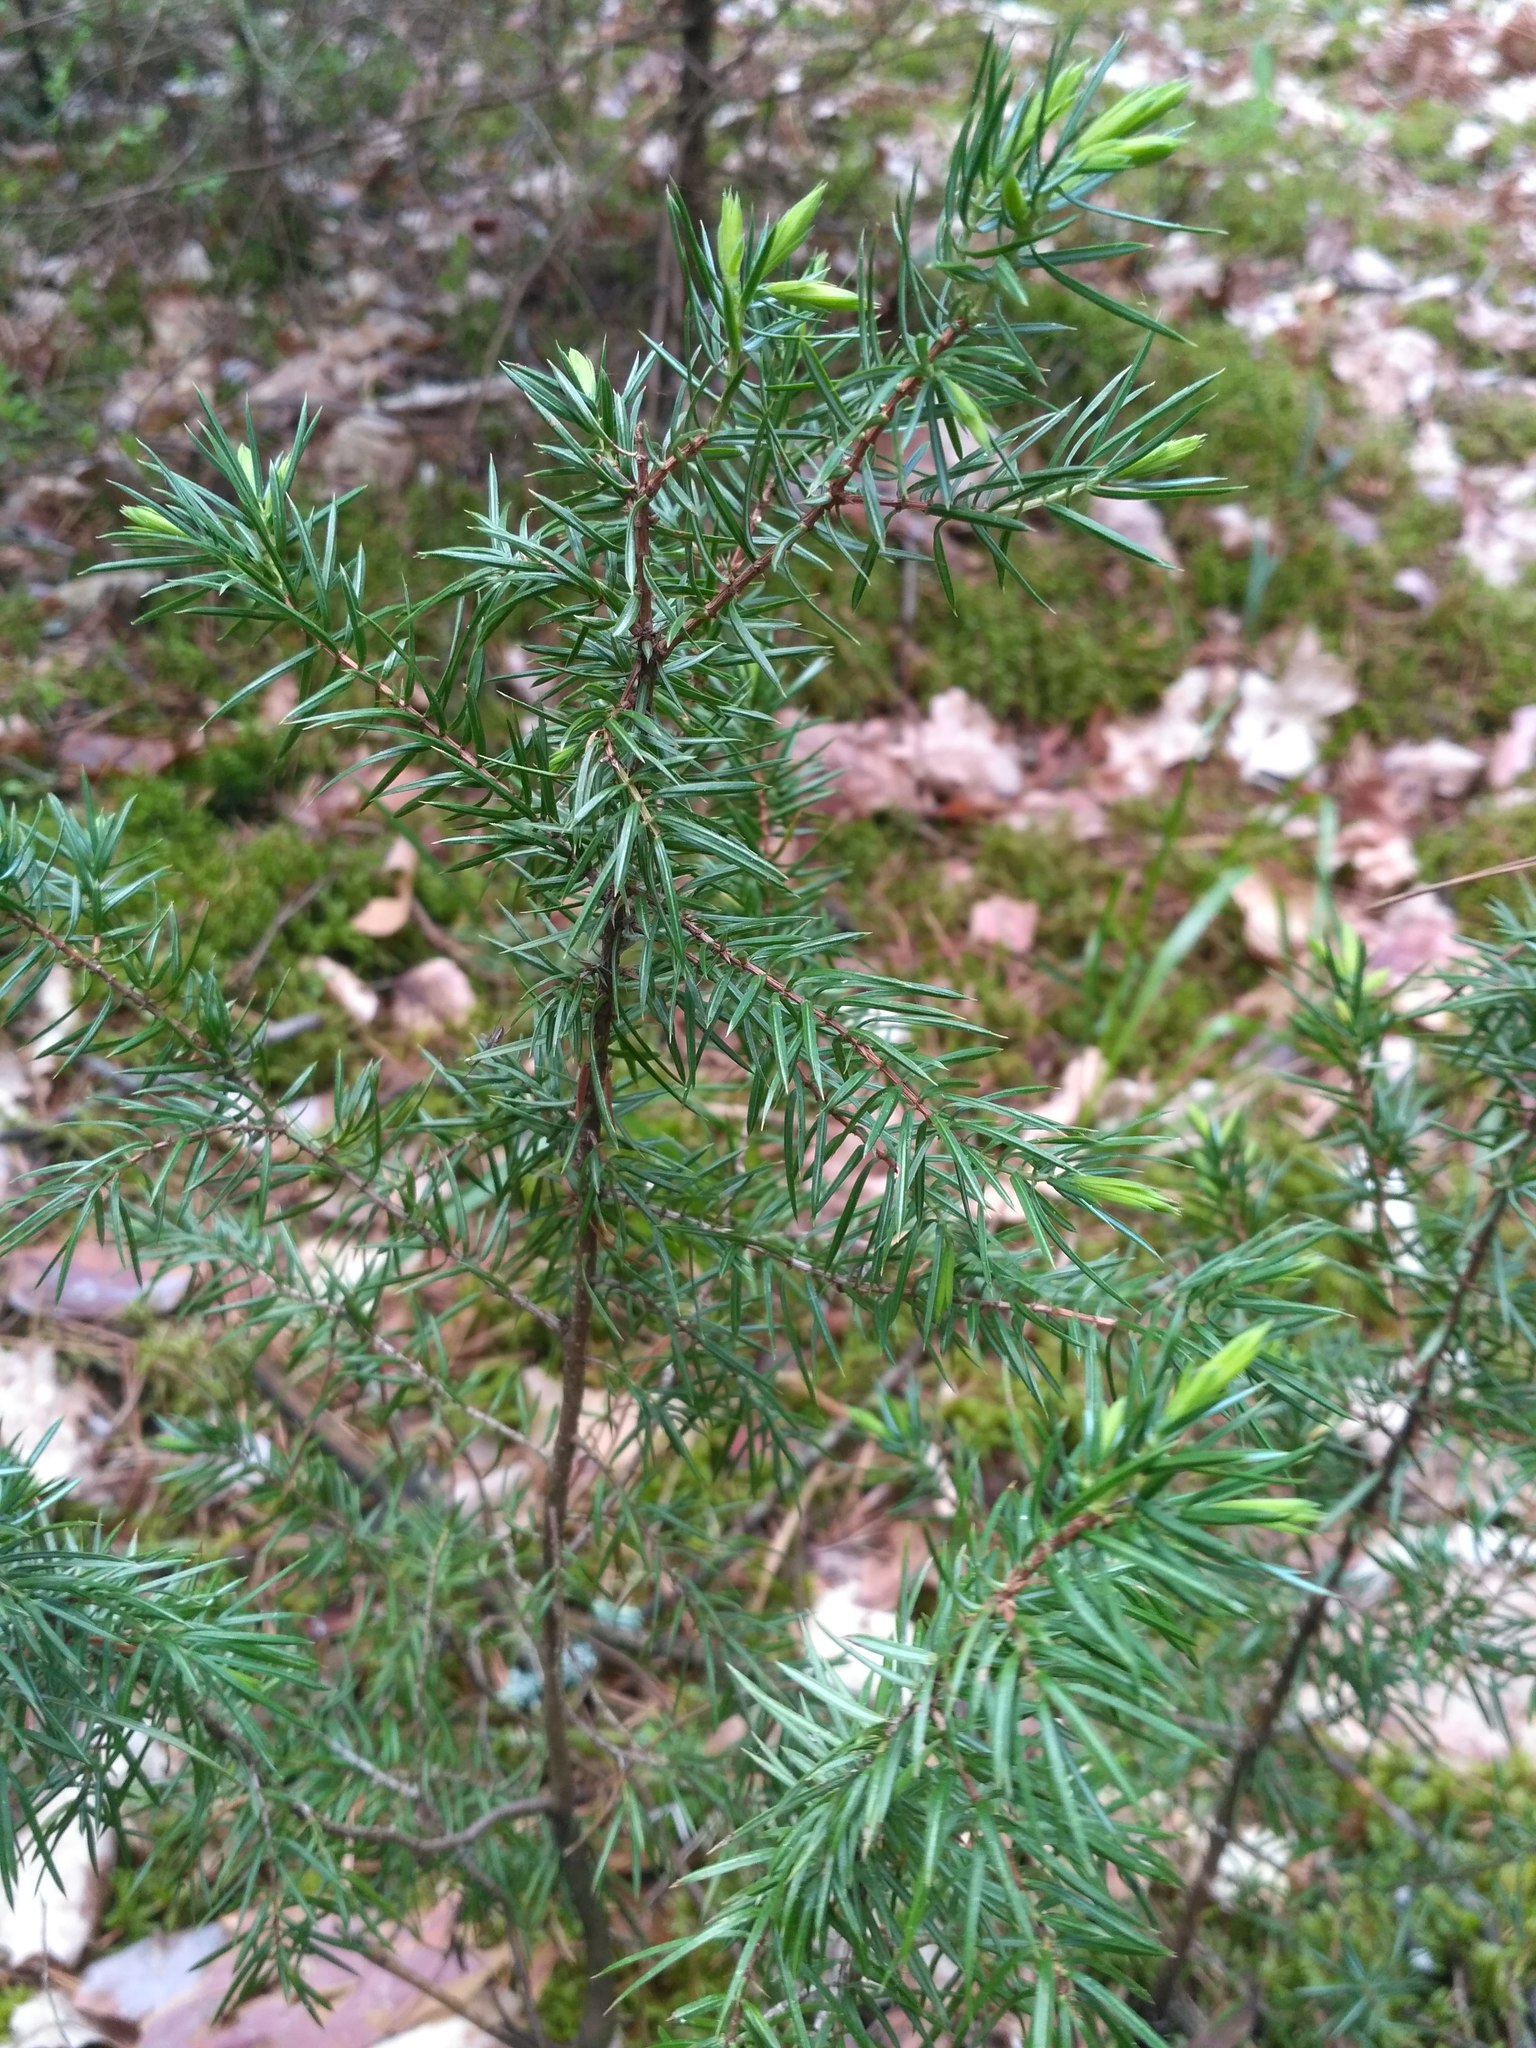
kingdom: Plantae
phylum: Tracheophyta
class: Pinopsida
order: Pinales
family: Cupressaceae
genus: Juniperus
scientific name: Juniperus communis
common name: Common juniper
